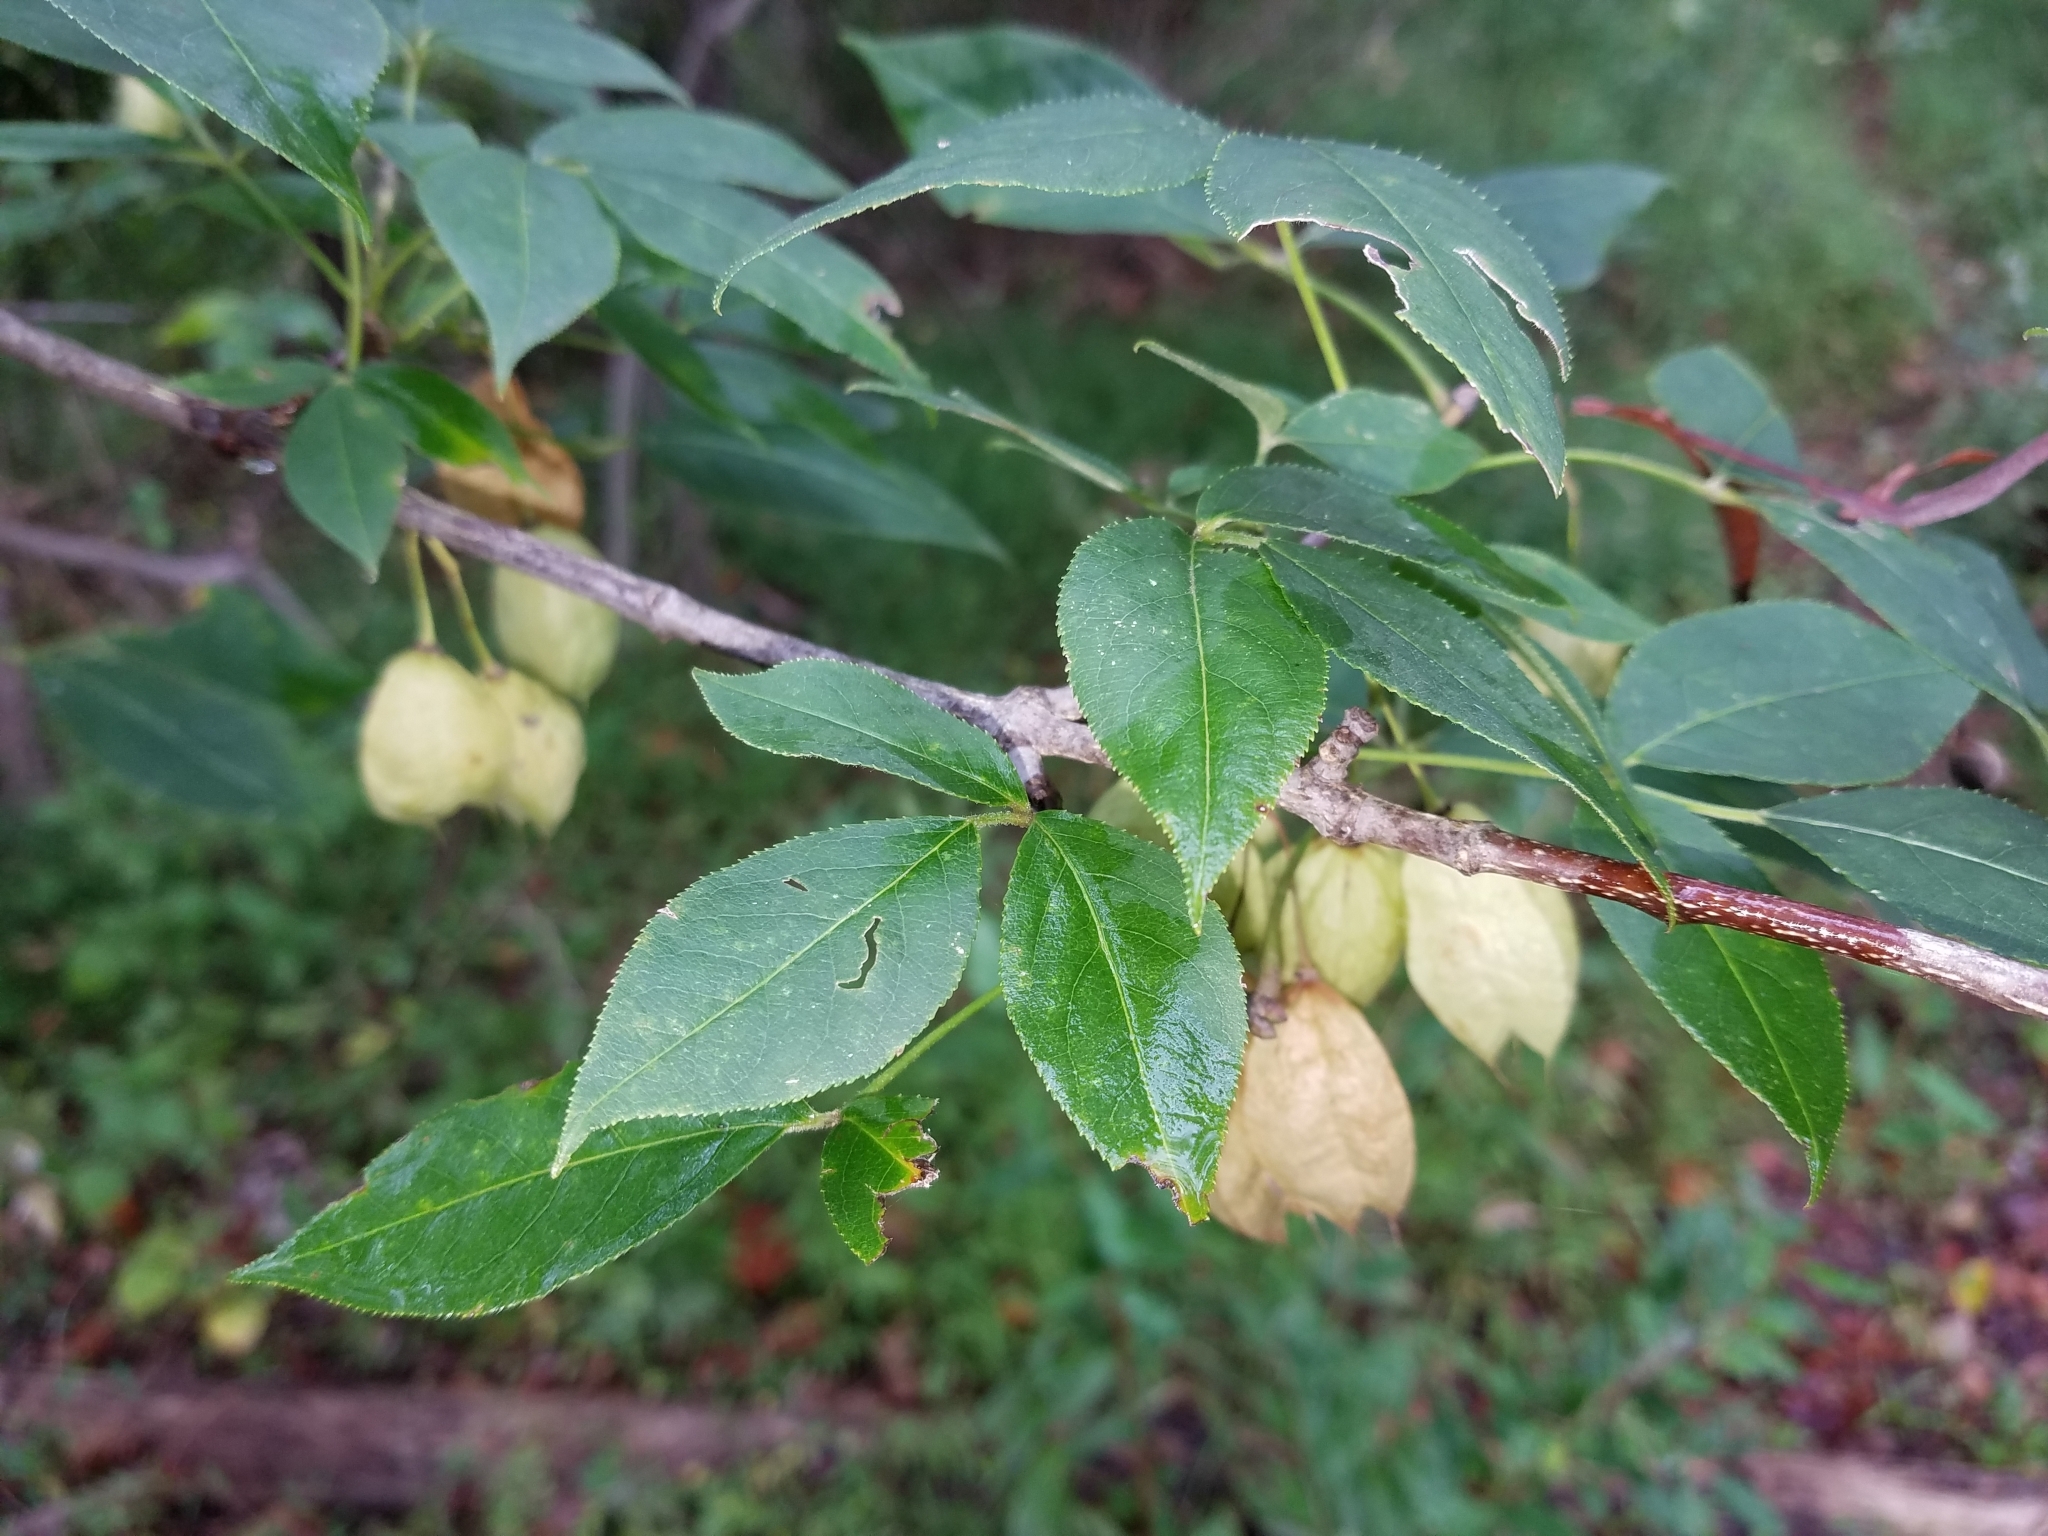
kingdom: Plantae
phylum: Tracheophyta
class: Magnoliopsida
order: Crossosomatales
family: Staphyleaceae
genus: Staphylea
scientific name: Staphylea trifolia
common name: American bladdernut
